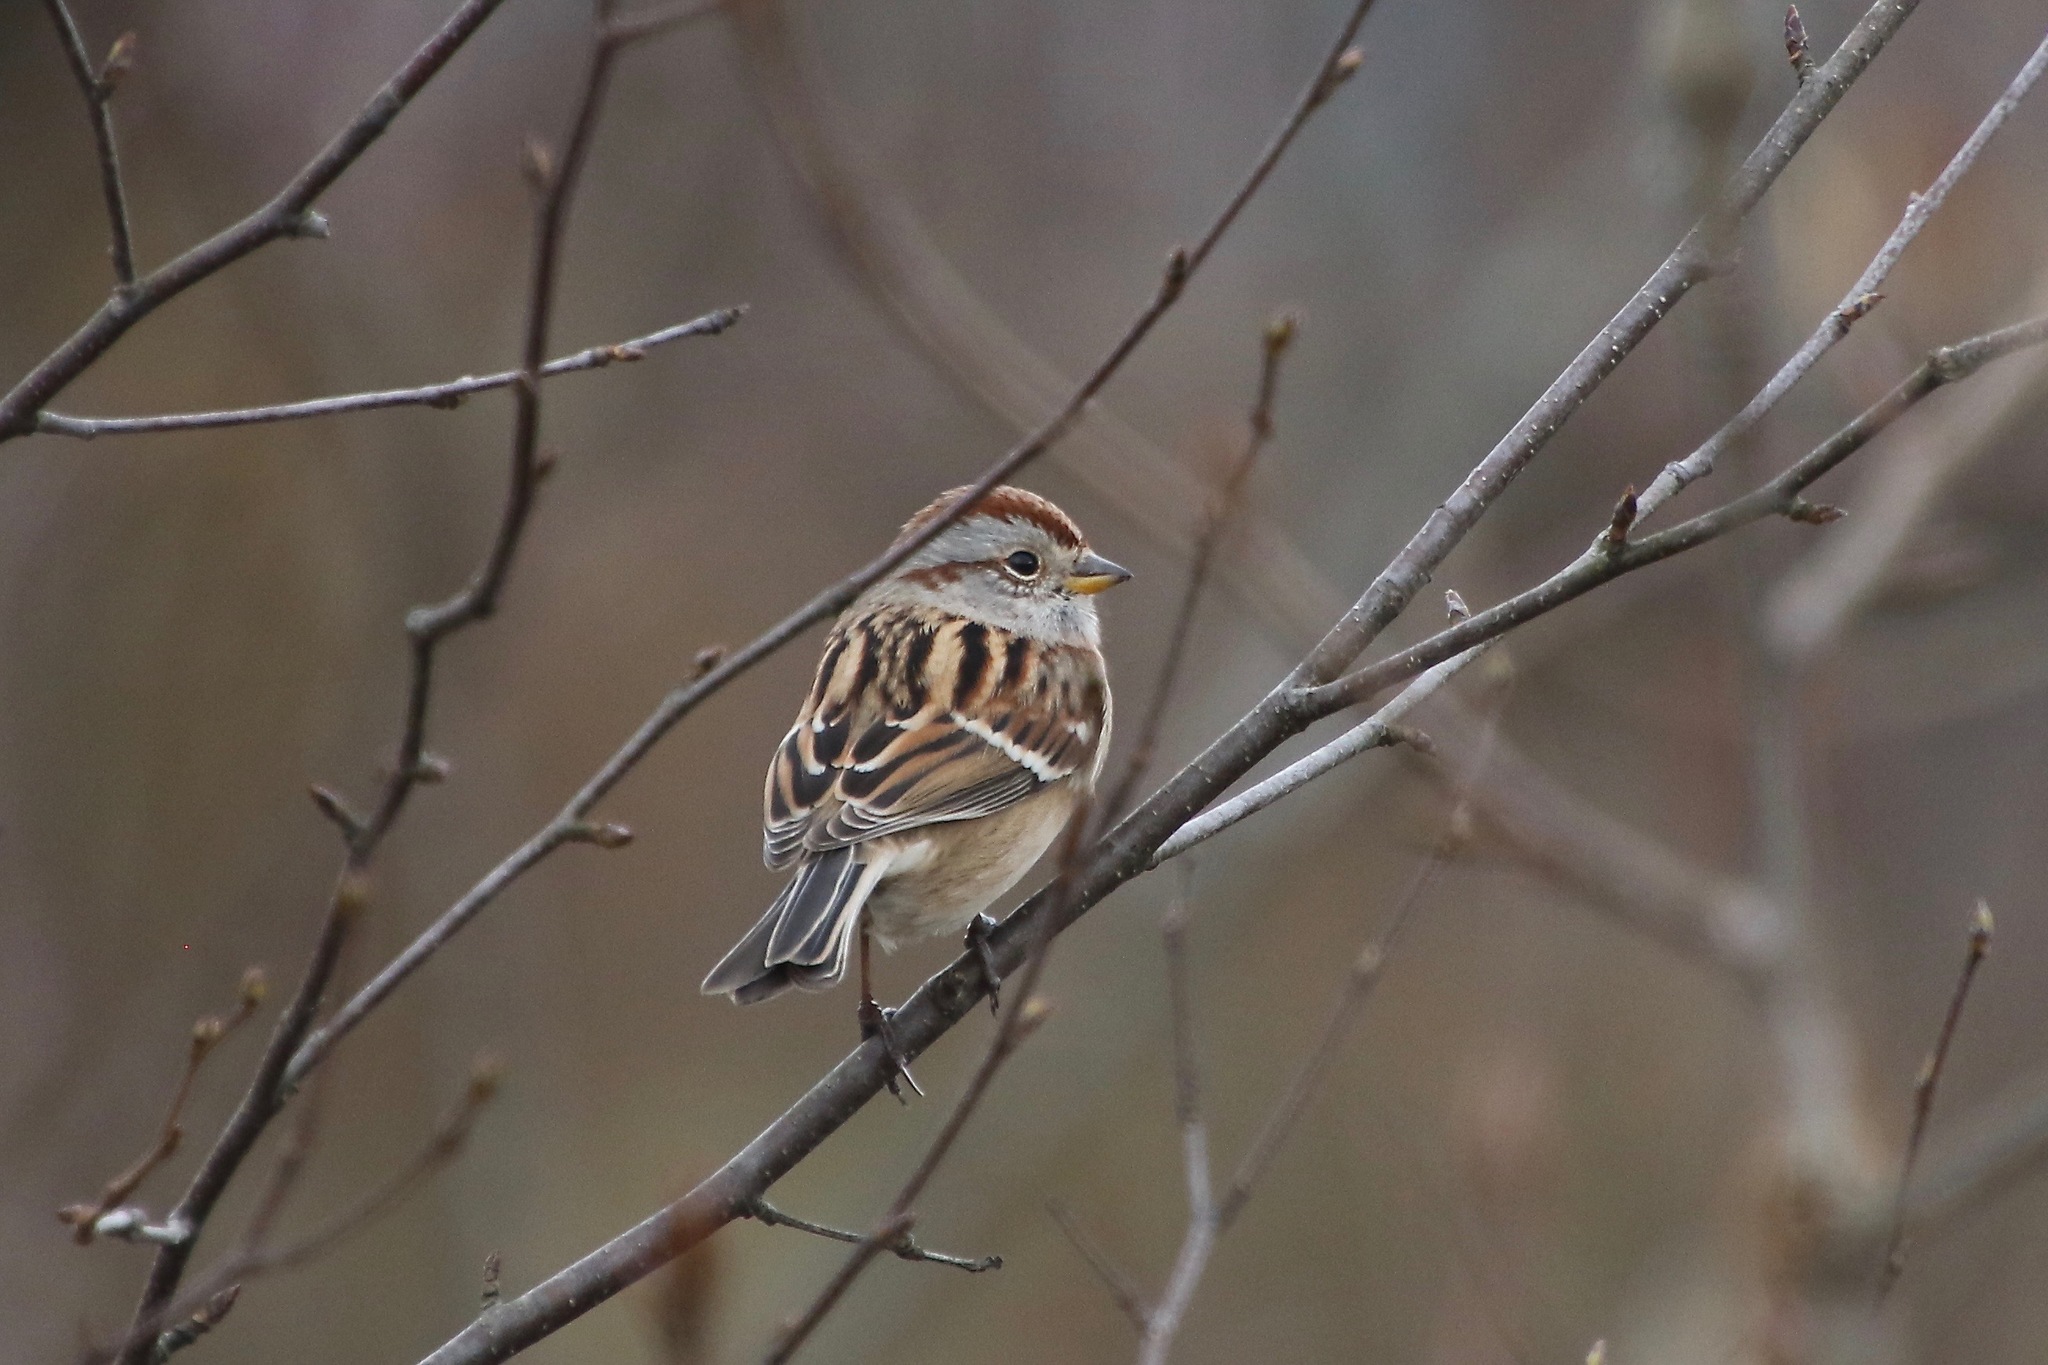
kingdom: Animalia
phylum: Chordata
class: Aves
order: Passeriformes
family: Passerellidae
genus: Spizelloides
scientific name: Spizelloides arborea
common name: American tree sparrow
